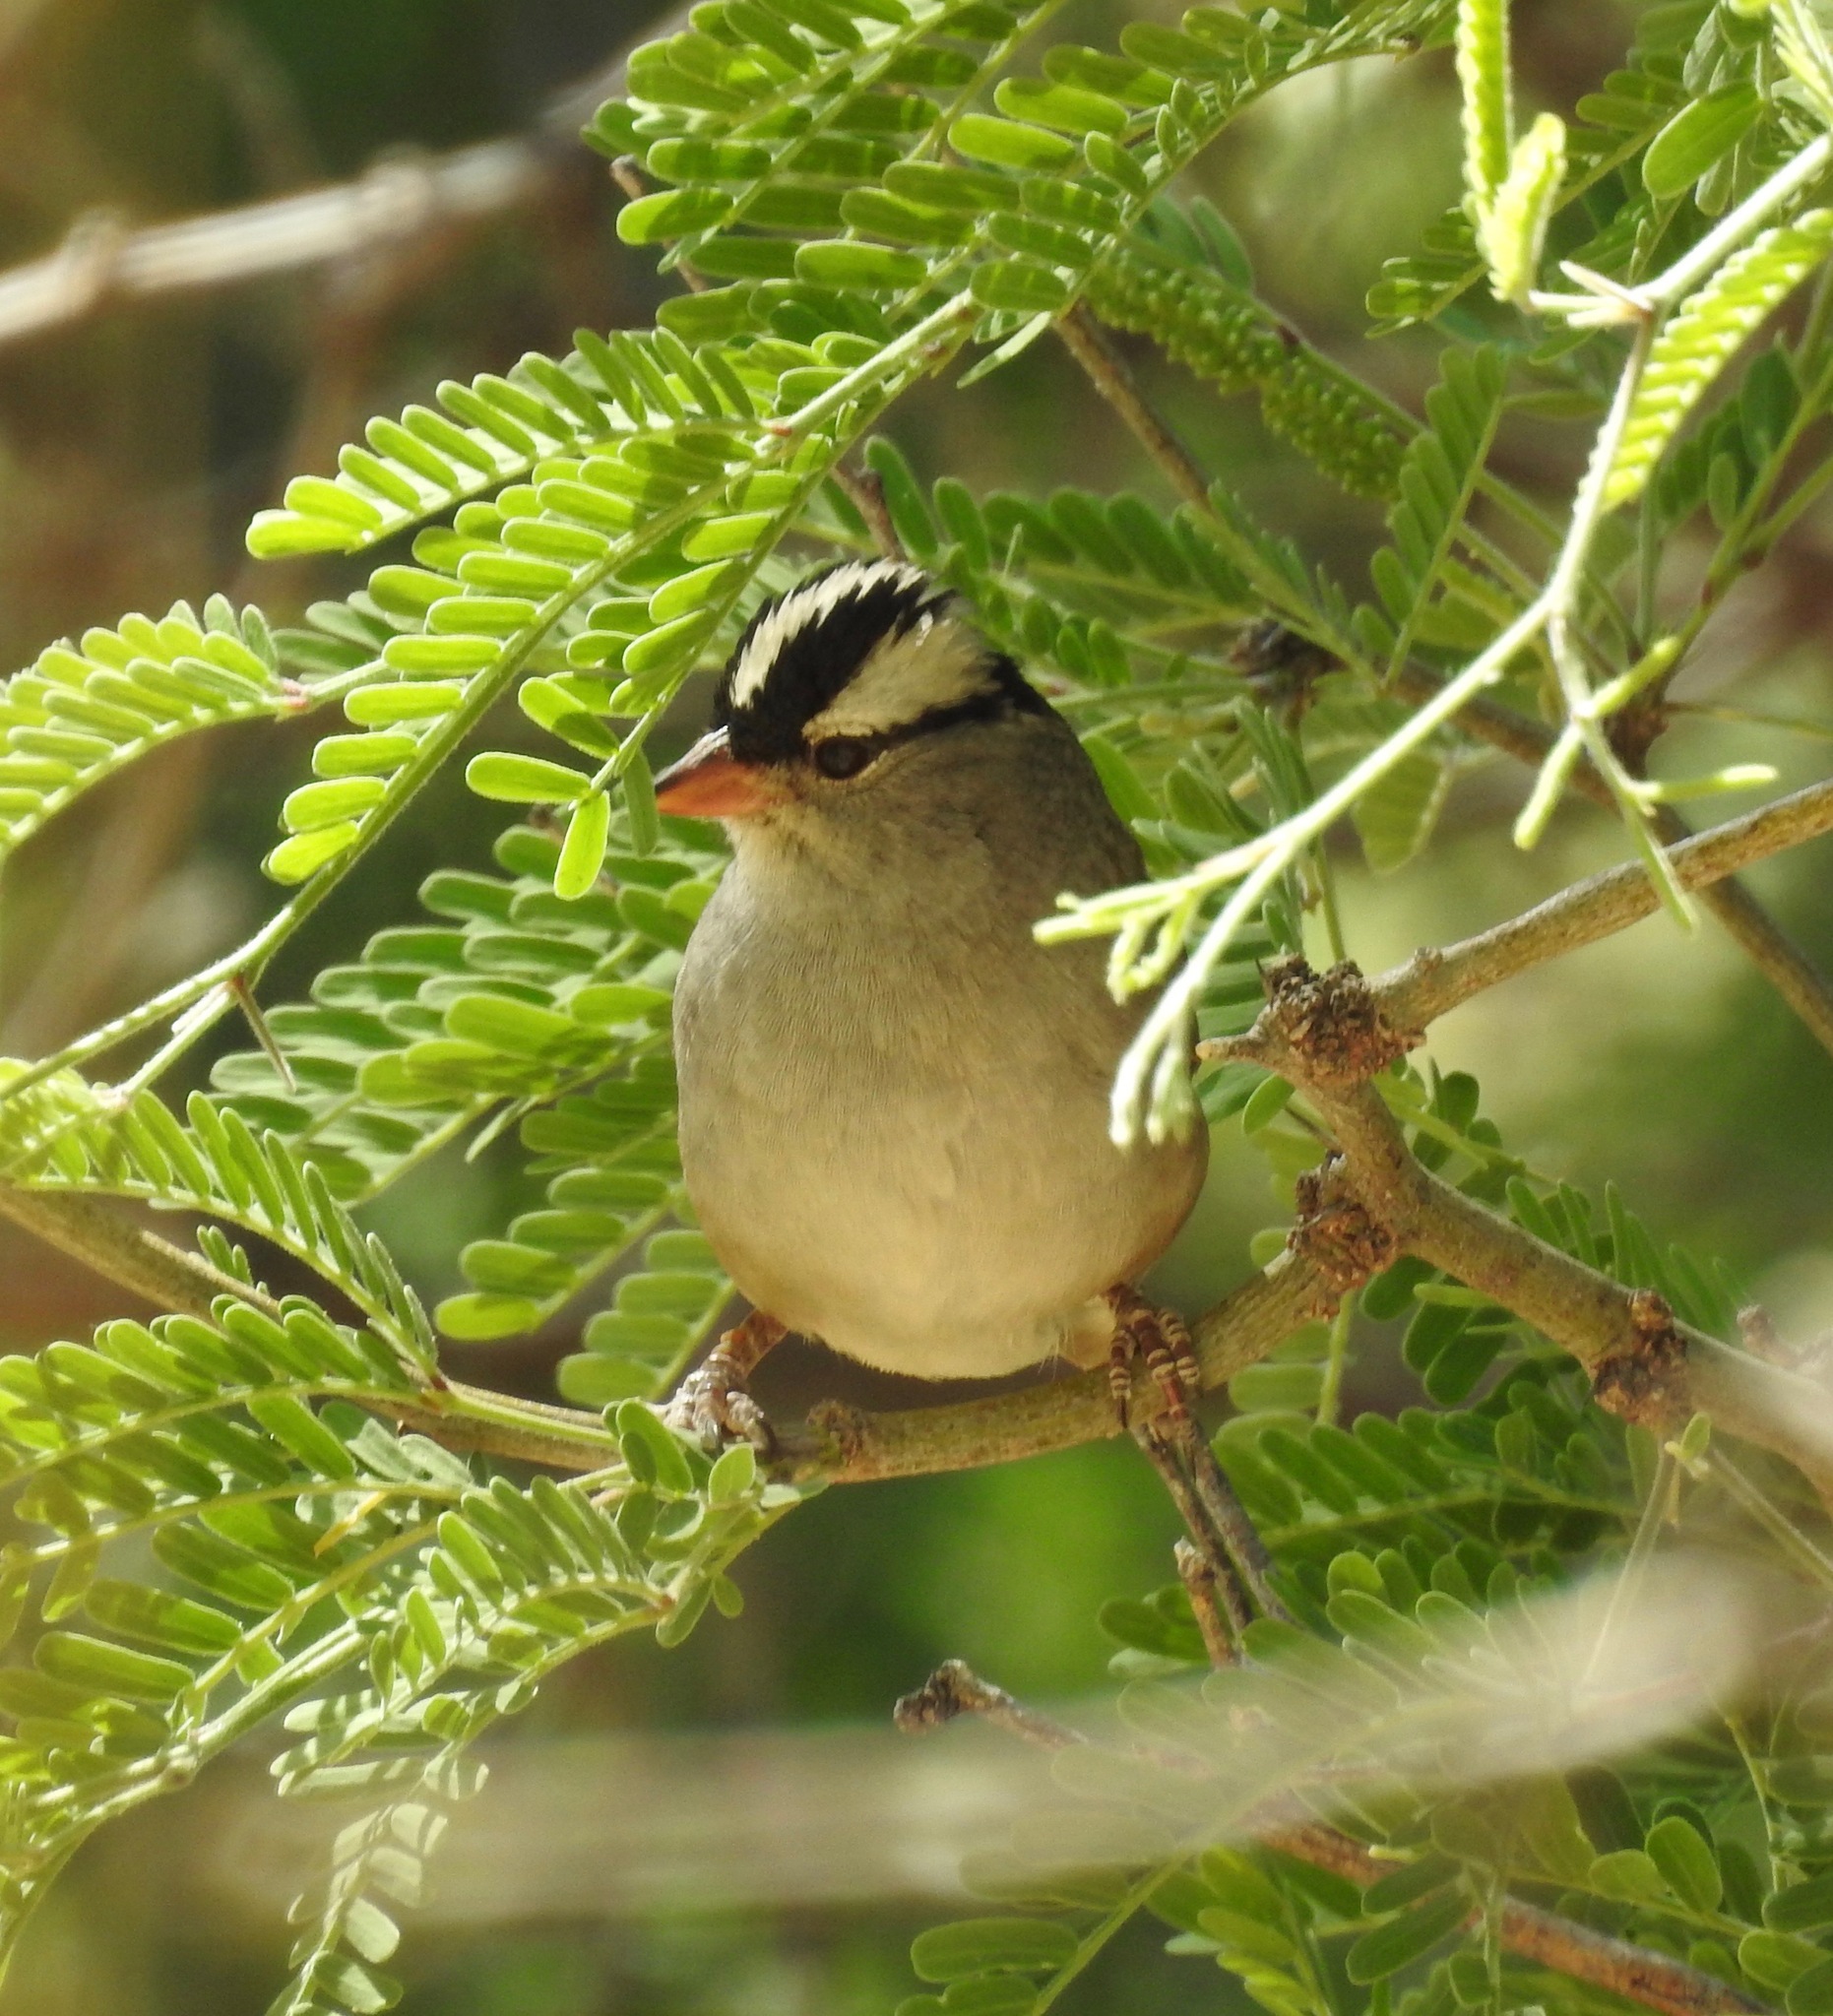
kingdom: Animalia
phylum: Chordata
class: Aves
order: Passeriformes
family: Passerellidae
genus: Zonotrichia
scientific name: Zonotrichia leucophrys
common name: White-crowned sparrow
